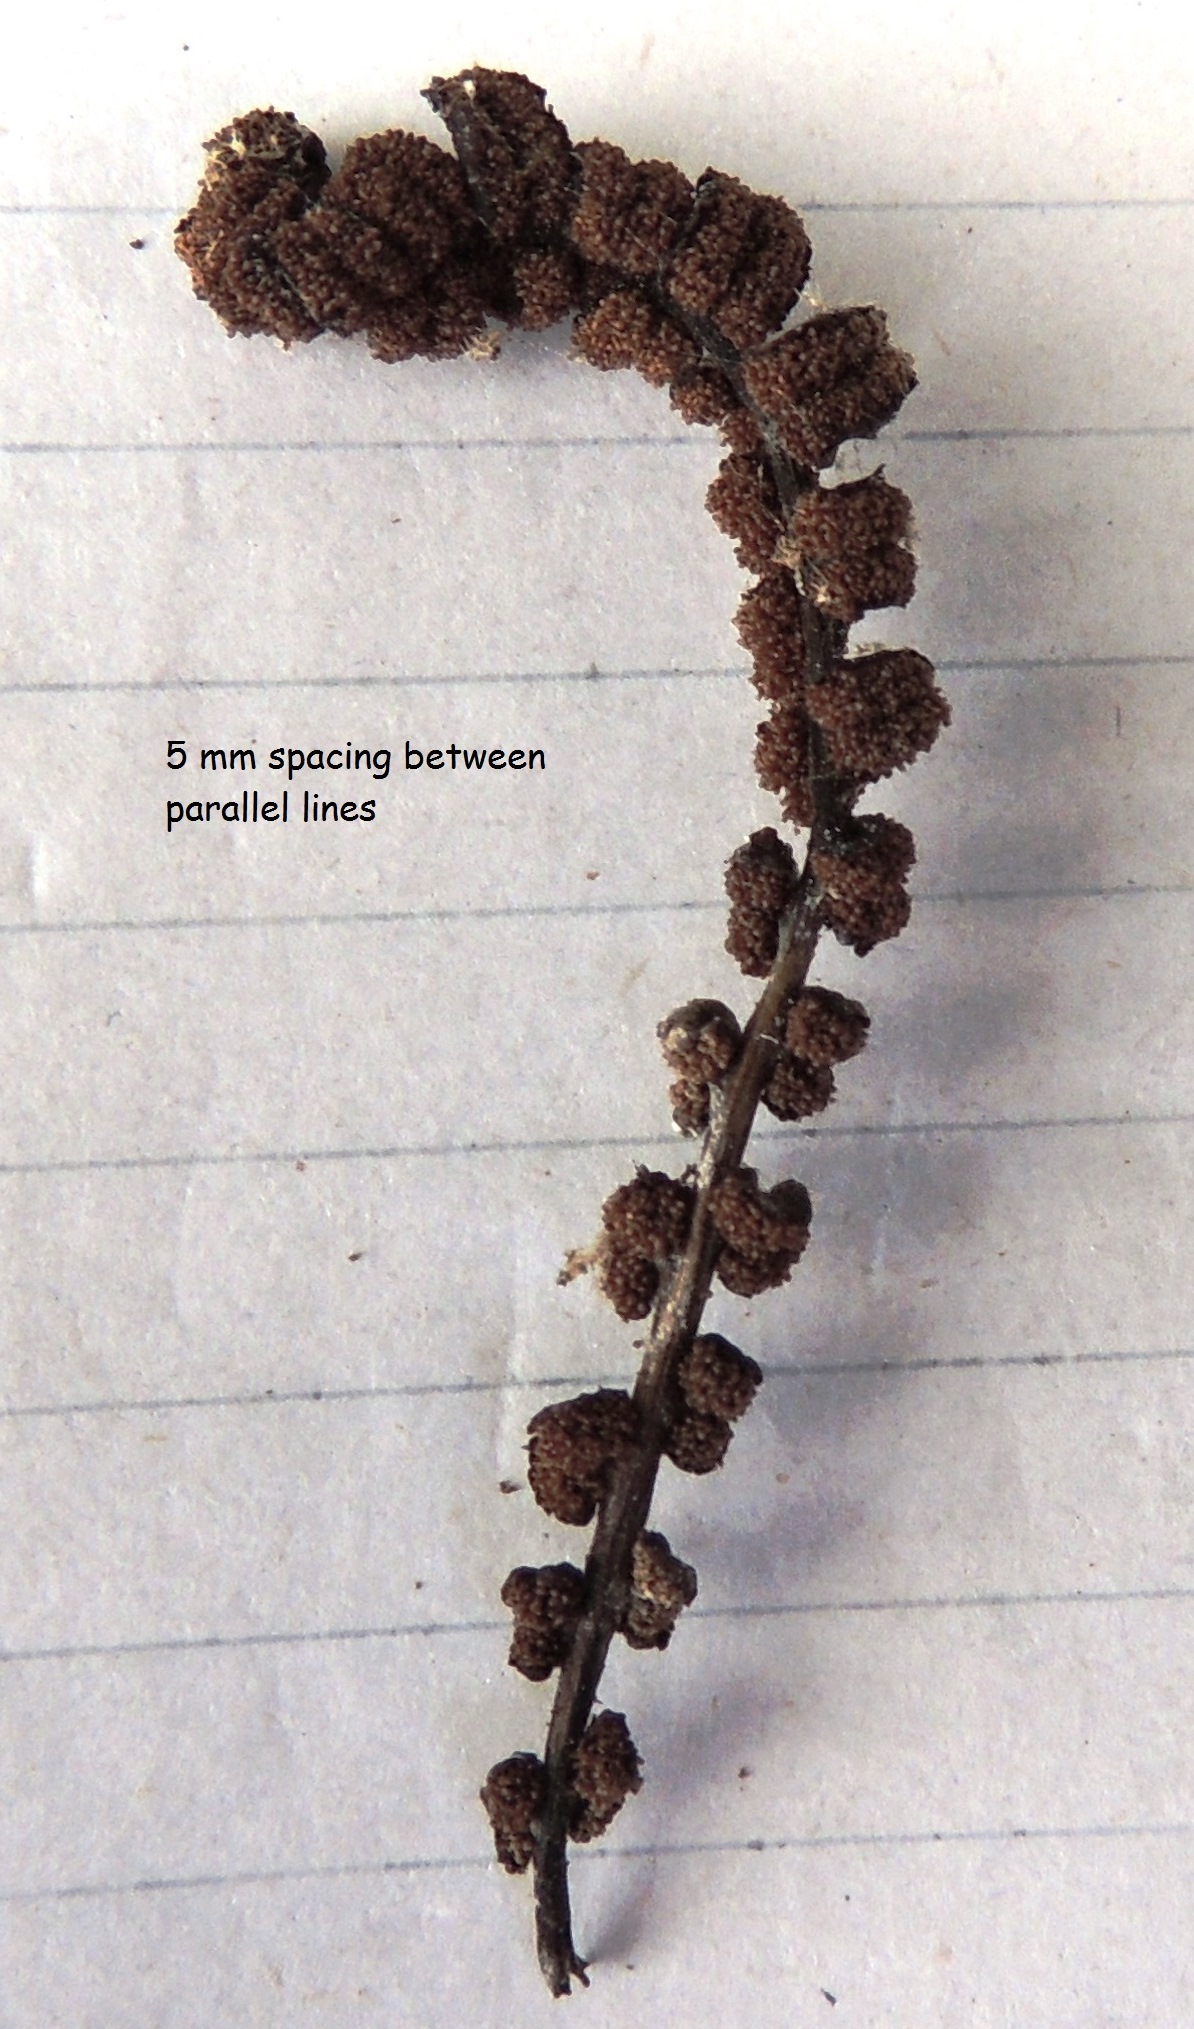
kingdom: Plantae
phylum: Tracheophyta
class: Polypodiopsida
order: Polypodiales
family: Blechnaceae
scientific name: Blechnaceae
